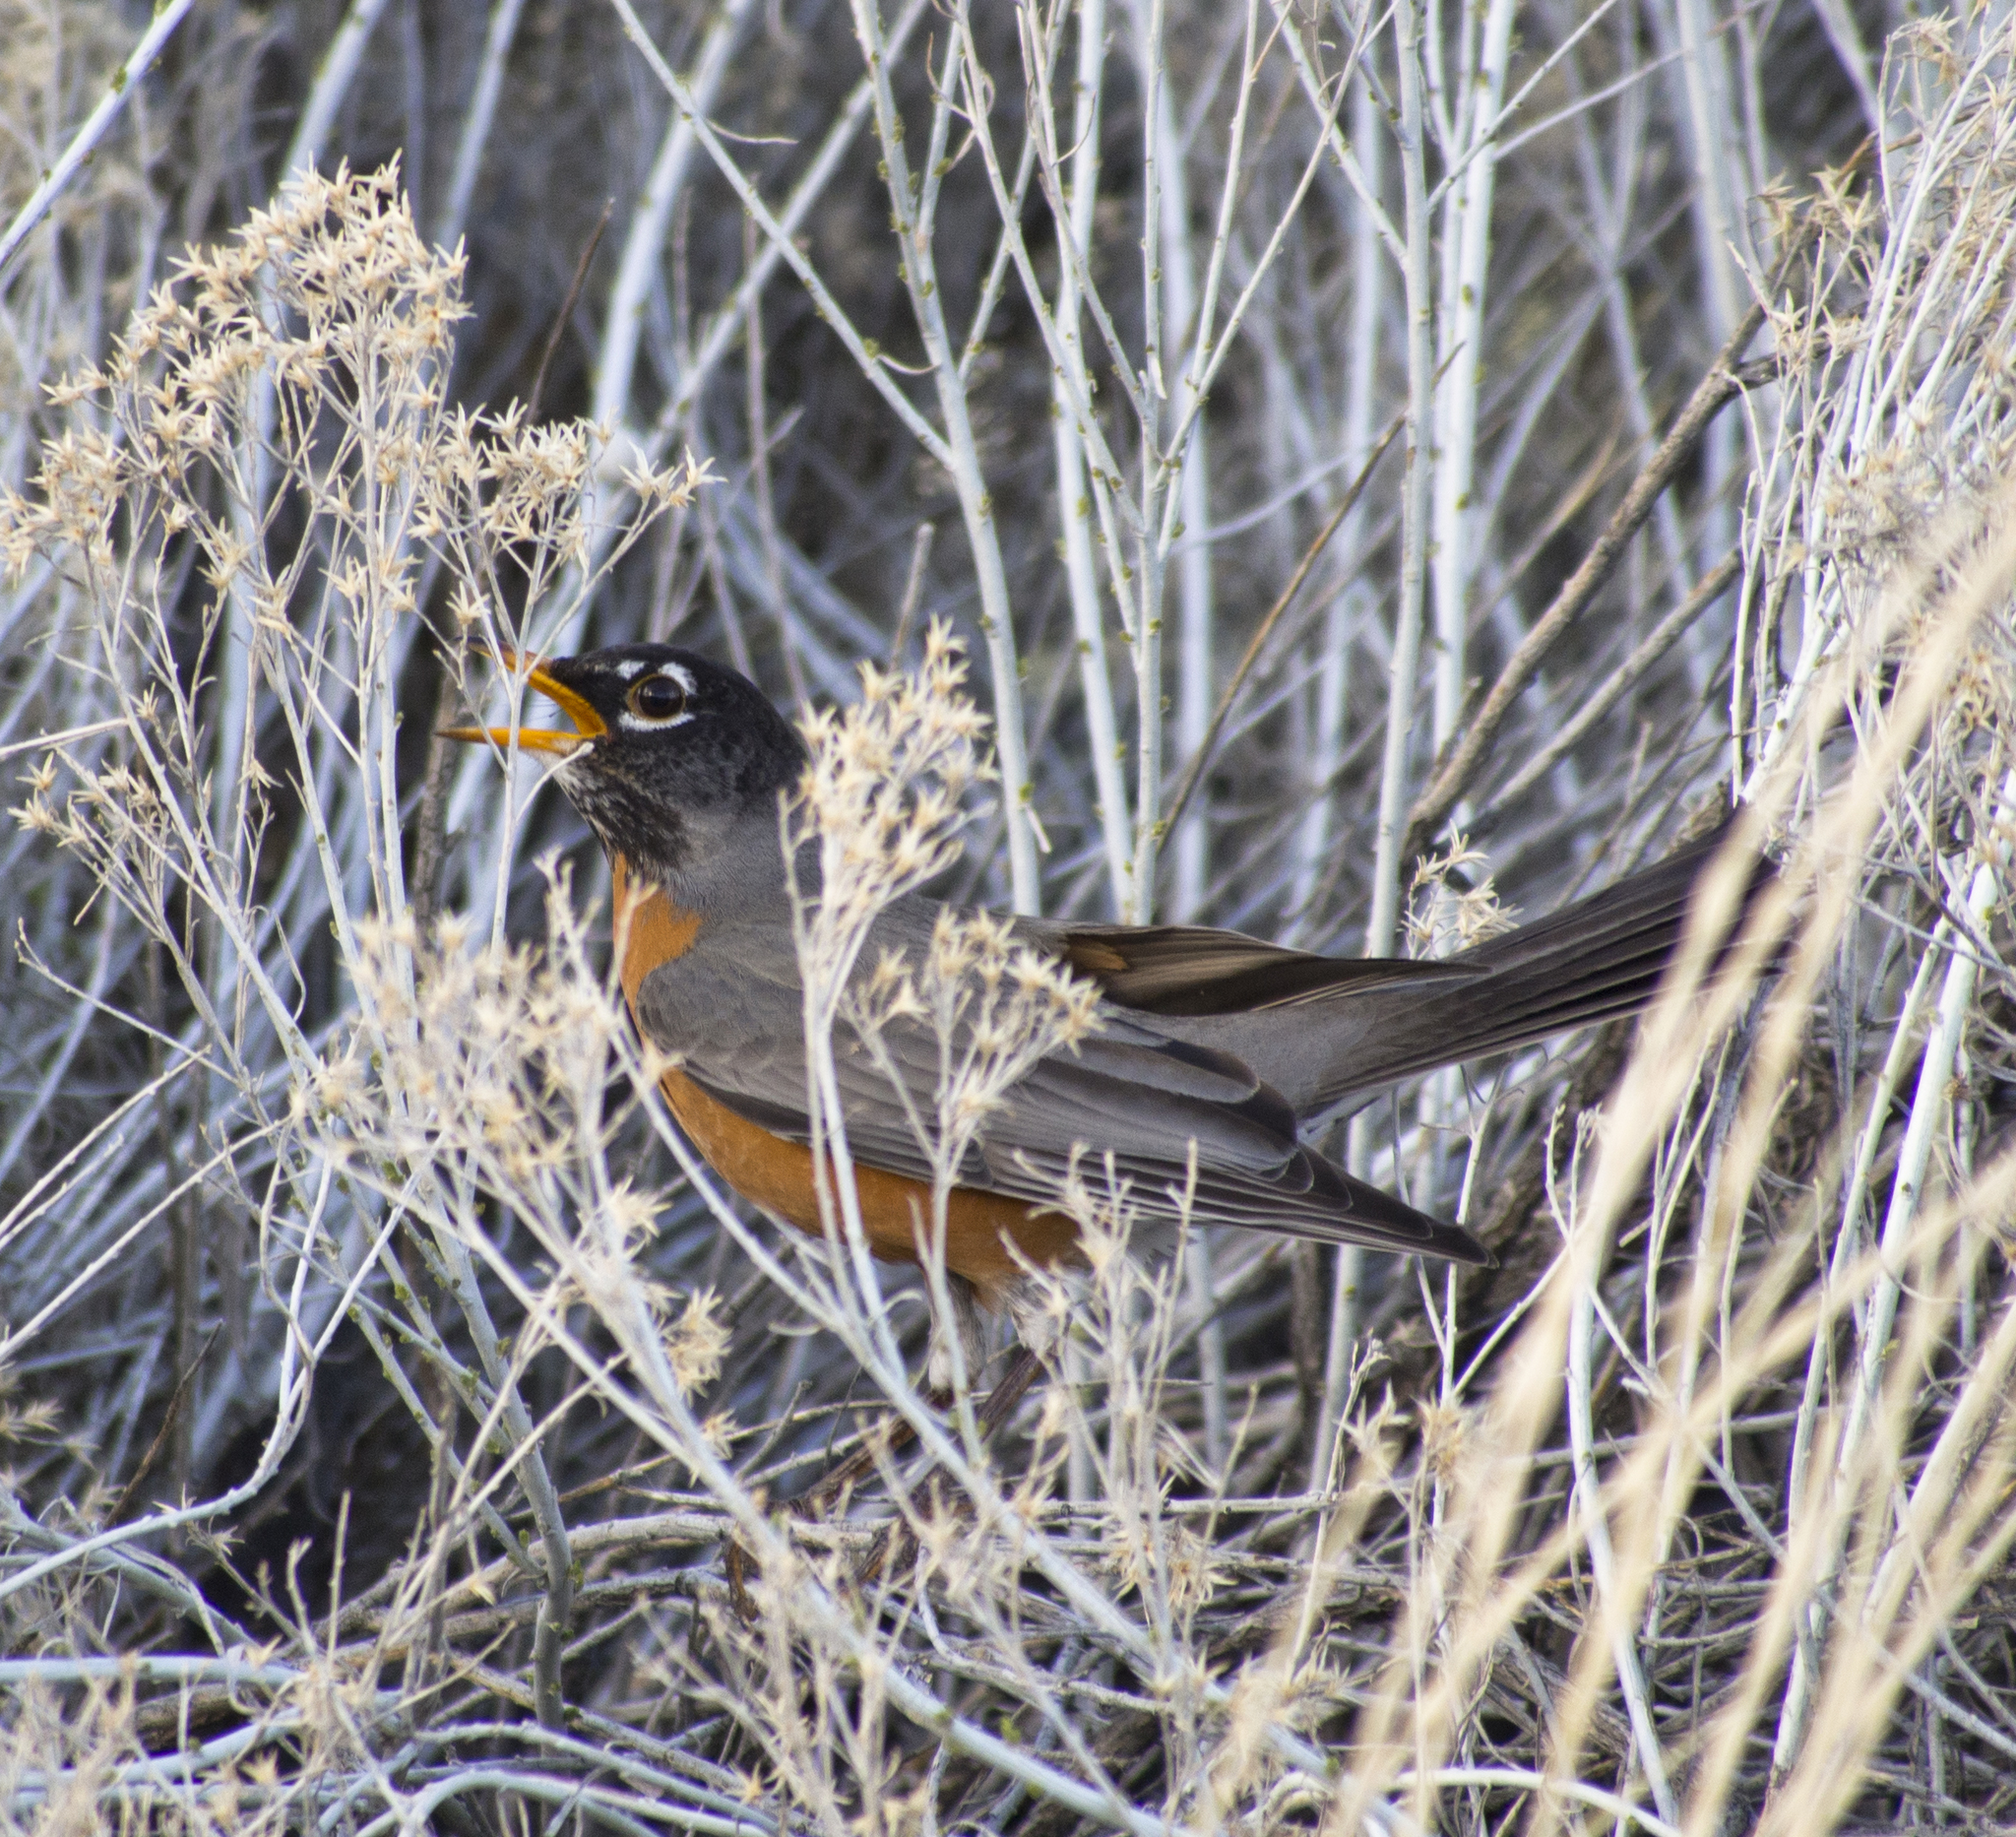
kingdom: Animalia
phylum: Chordata
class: Aves
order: Passeriformes
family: Turdidae
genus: Turdus
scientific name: Turdus migratorius
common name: American robin
